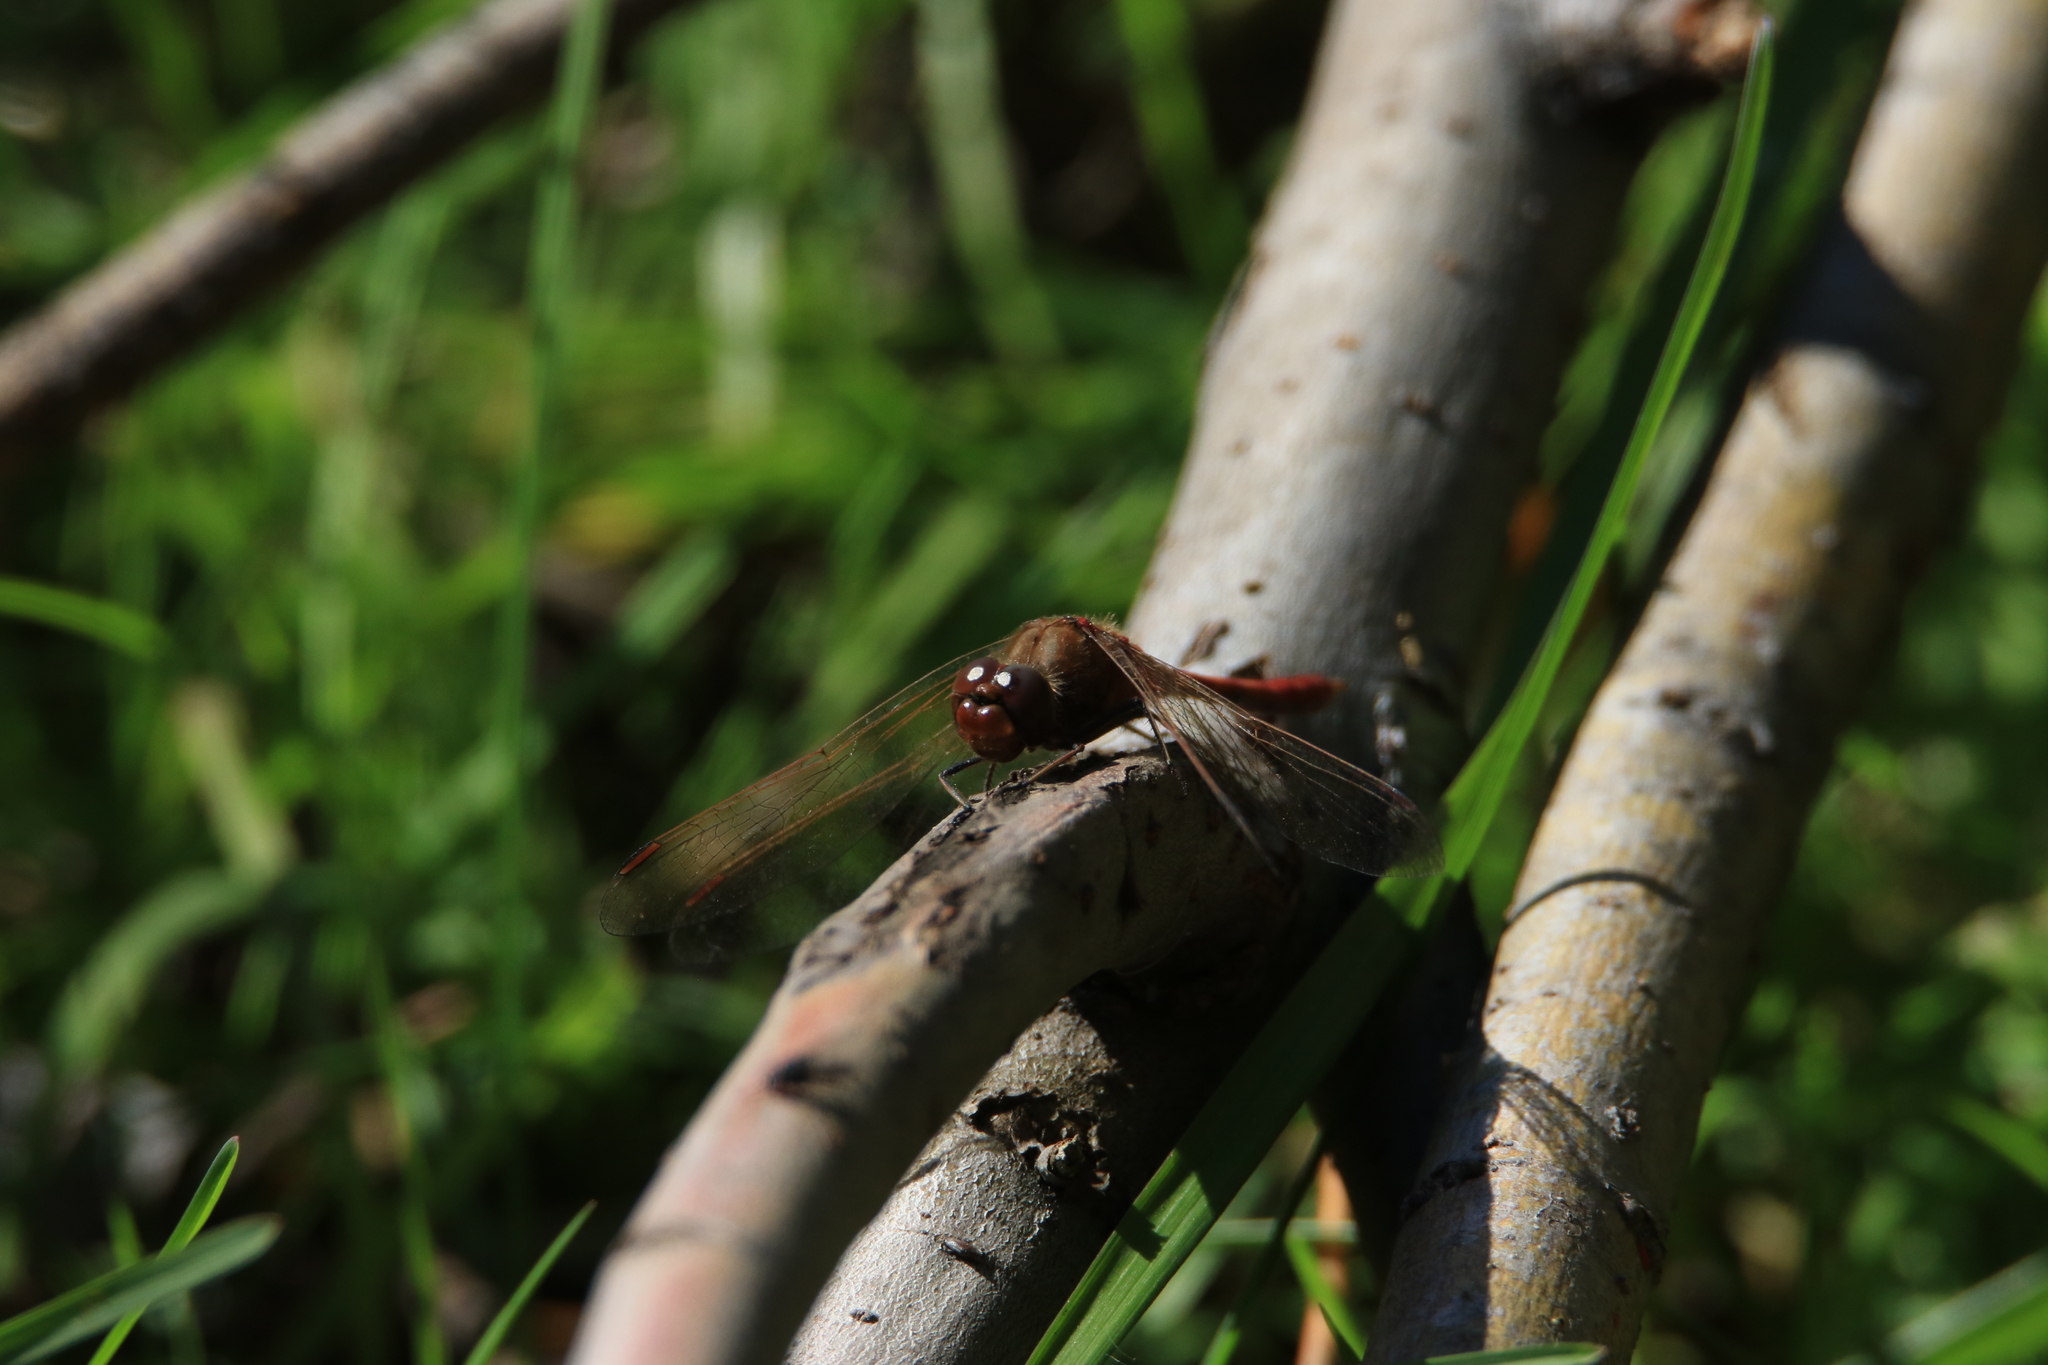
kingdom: Animalia
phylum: Arthropoda
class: Insecta
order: Odonata
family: Libellulidae
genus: Sympetrum
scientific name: Sympetrum vulgatum
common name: Vagrant darter
